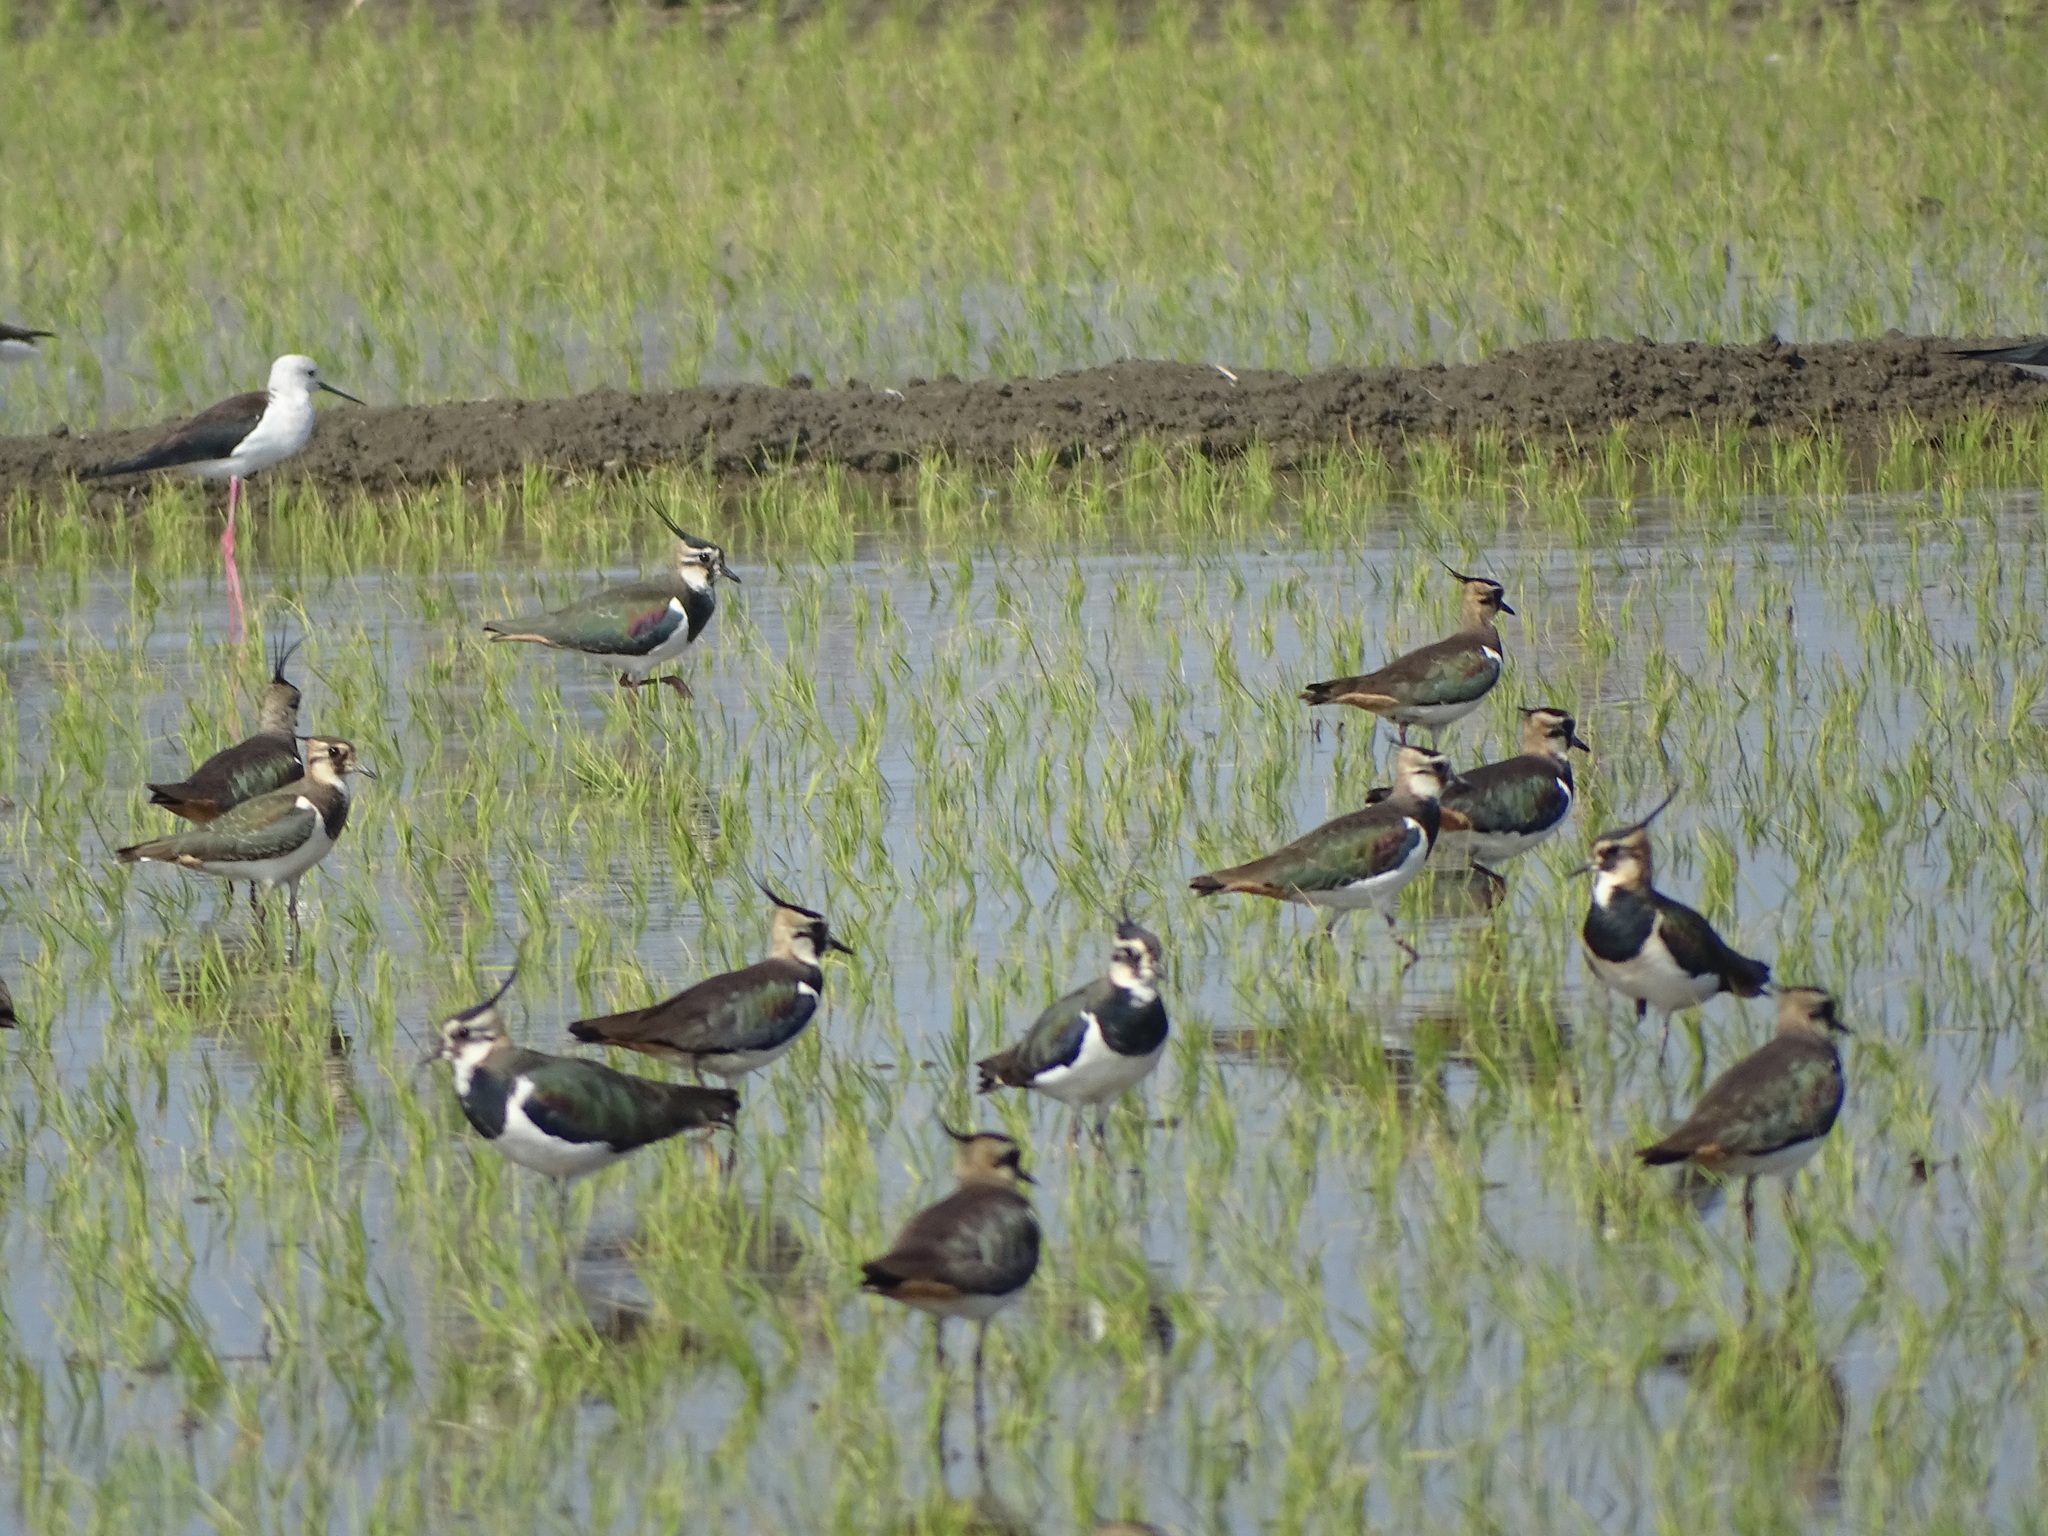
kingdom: Animalia
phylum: Chordata
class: Aves
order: Charadriiformes
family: Charadriidae
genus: Vanellus
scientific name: Vanellus vanellus
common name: Northern lapwing
